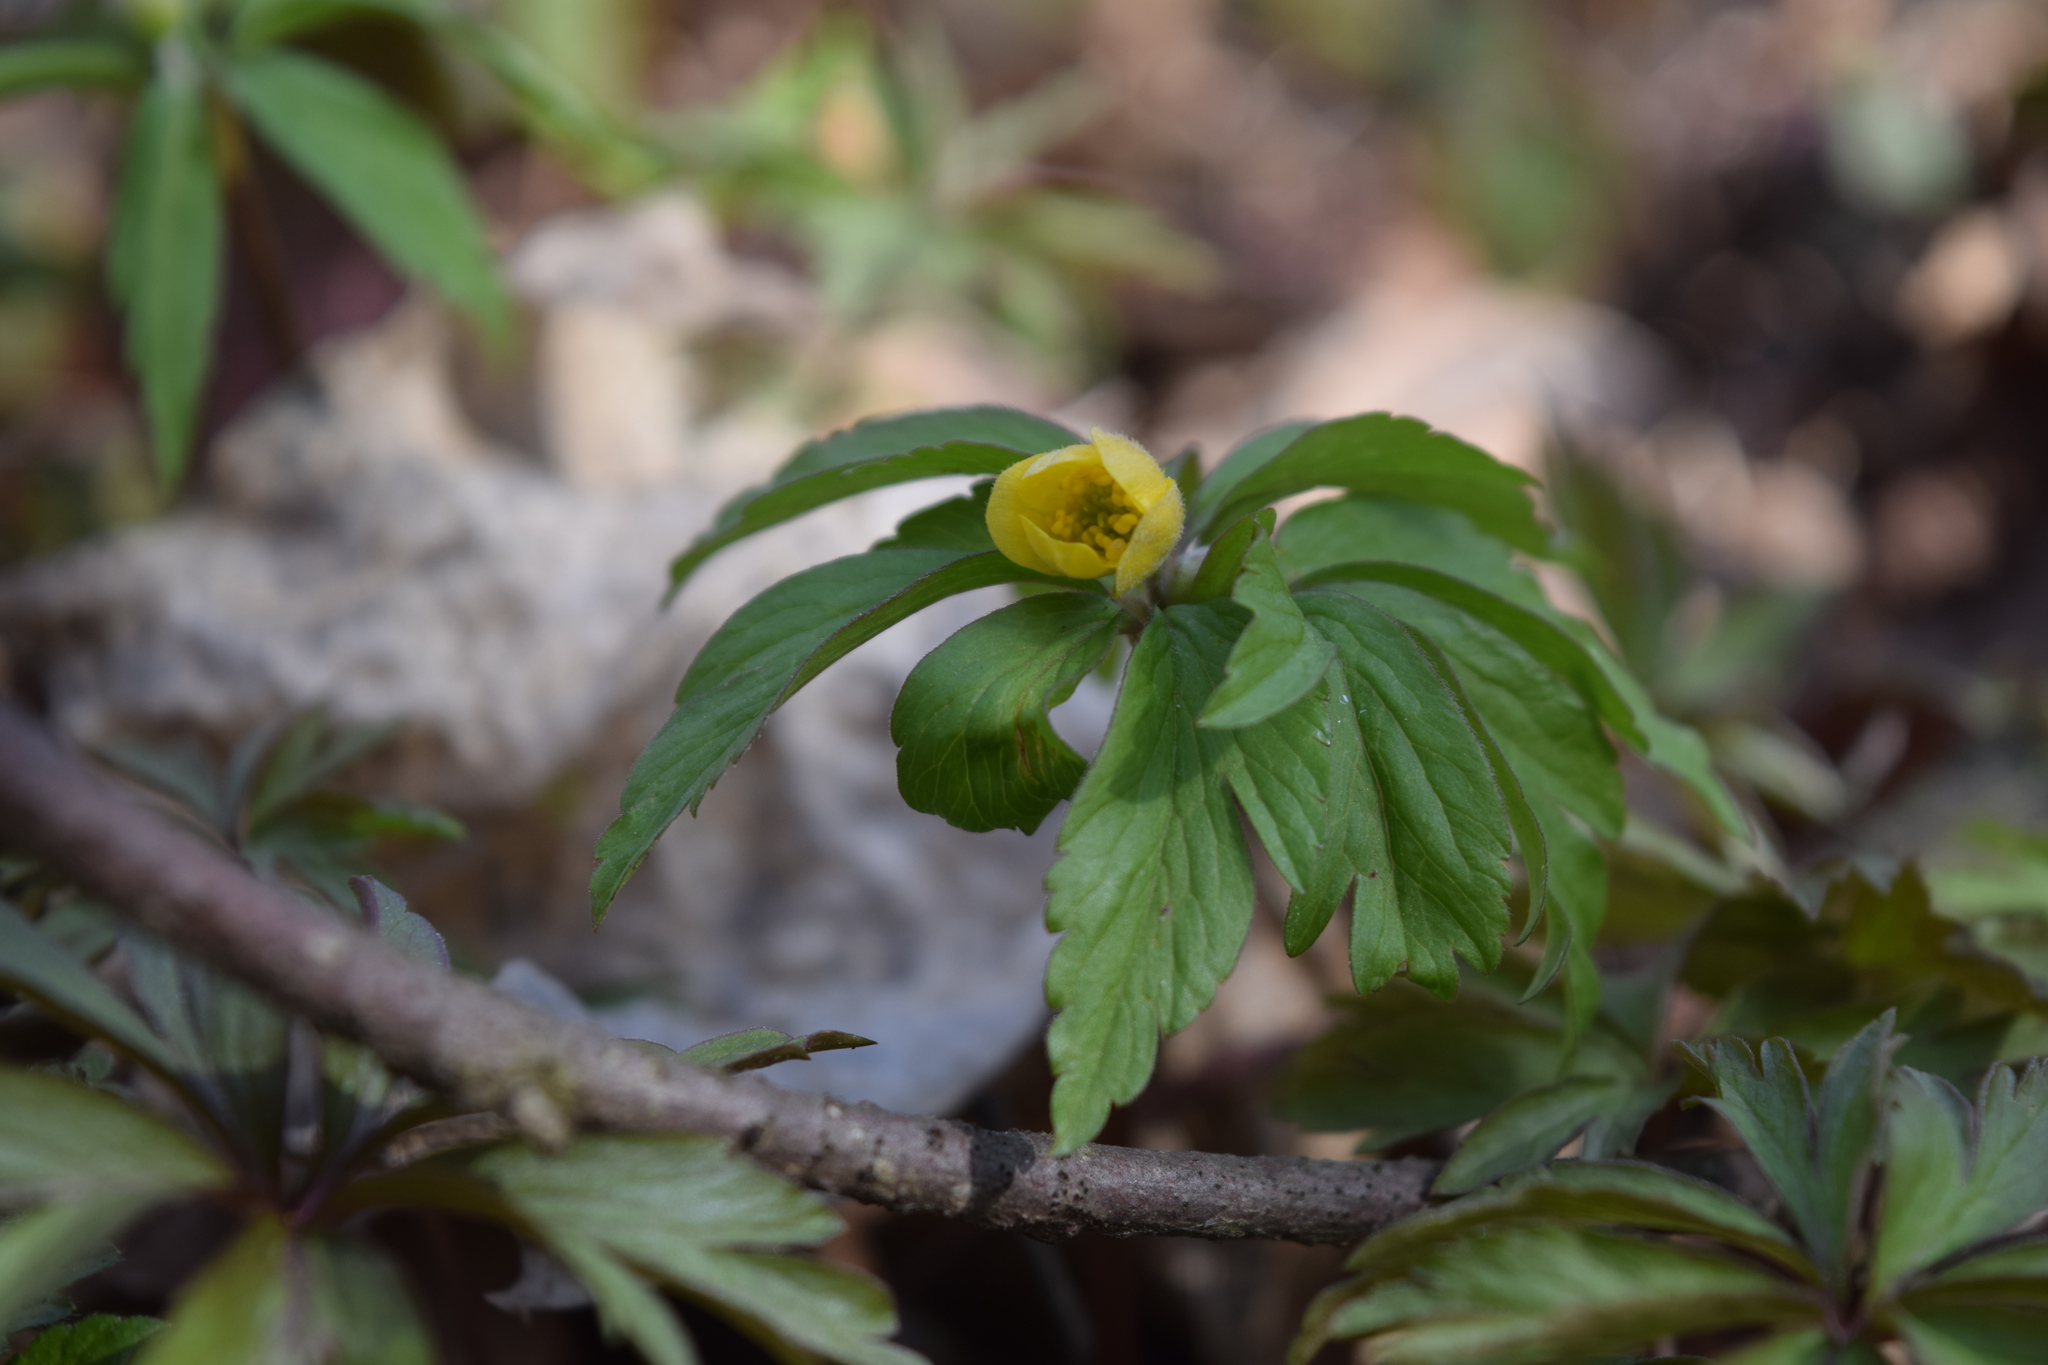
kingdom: Plantae
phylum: Tracheophyta
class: Magnoliopsida
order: Ranunculales
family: Ranunculaceae
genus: Anemone
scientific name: Anemone ranunculoides
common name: Yellow anemone
